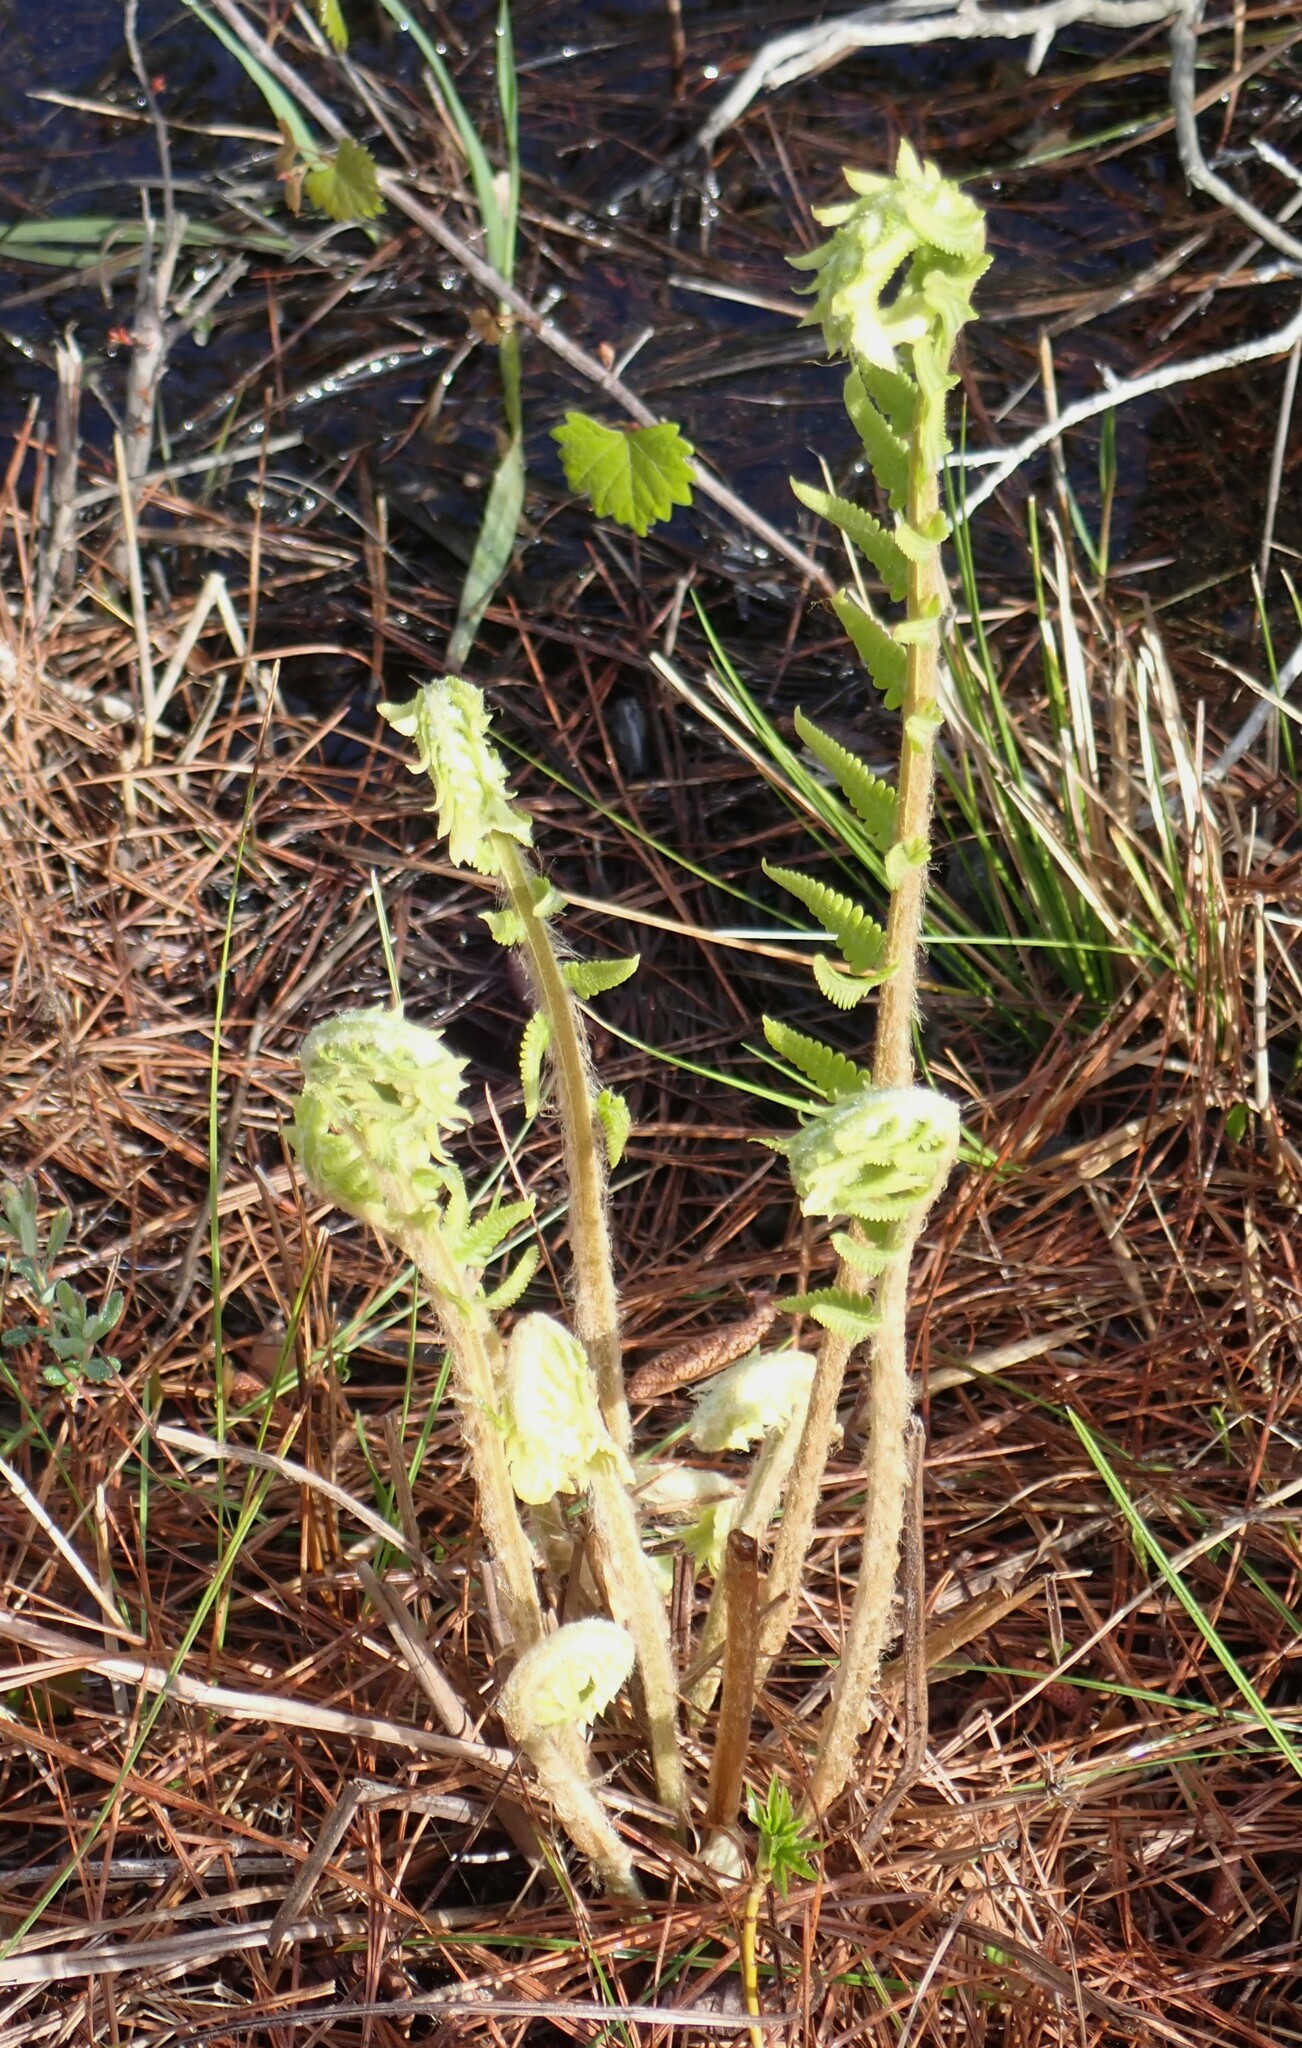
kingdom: Plantae
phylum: Tracheophyta
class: Polypodiopsida
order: Osmundales
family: Osmundaceae
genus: Osmundastrum
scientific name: Osmundastrum cinnamomeum
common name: Cinnamon fern
